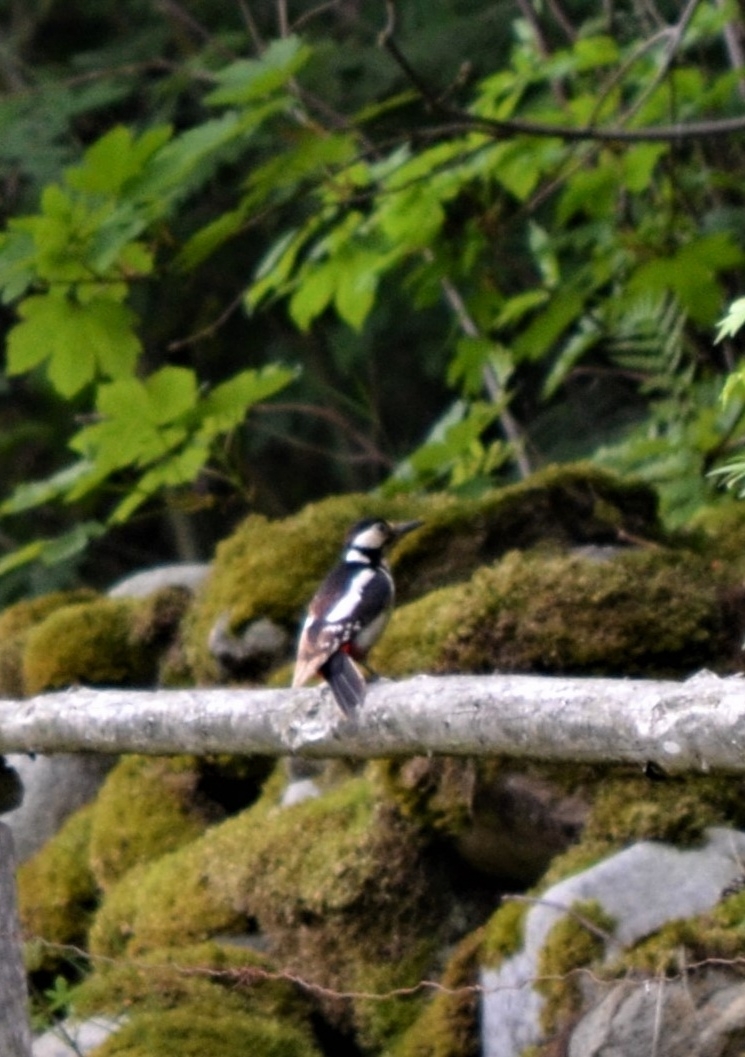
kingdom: Animalia
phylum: Chordata
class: Aves
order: Piciformes
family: Picidae
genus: Dendrocopos
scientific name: Dendrocopos major
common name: Great spotted woodpecker
